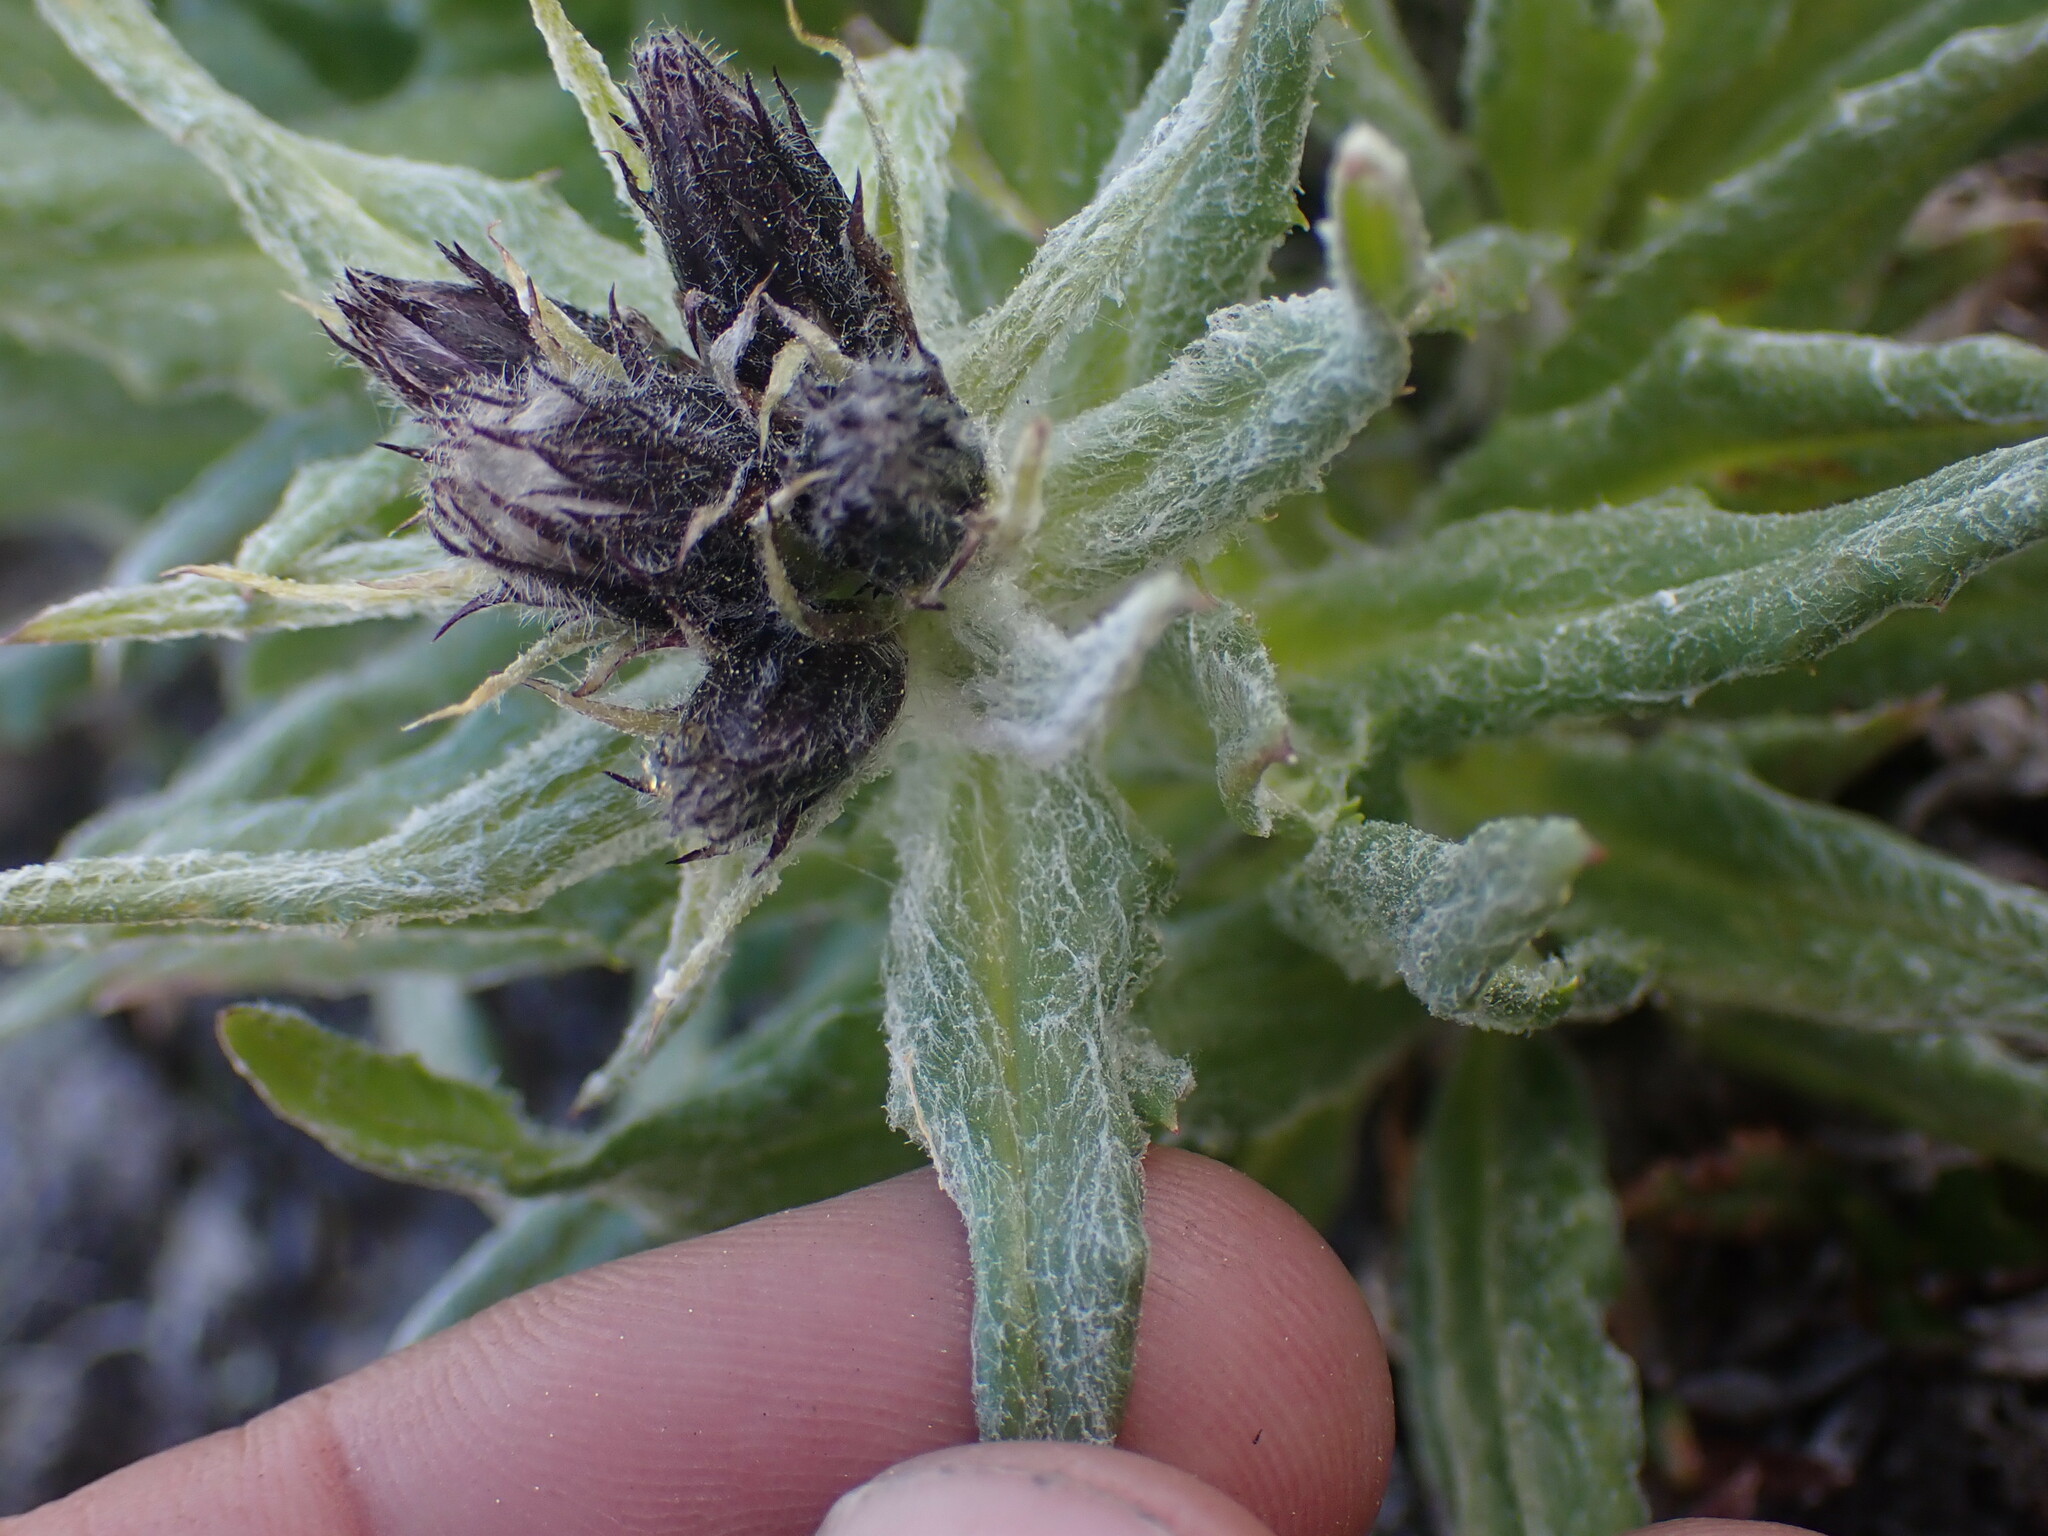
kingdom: Plantae
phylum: Tracheophyta
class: Magnoliopsida
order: Asterales
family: Asteraceae
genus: Saussurea
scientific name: Saussurea nuda
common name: Chaffless saw-wort
